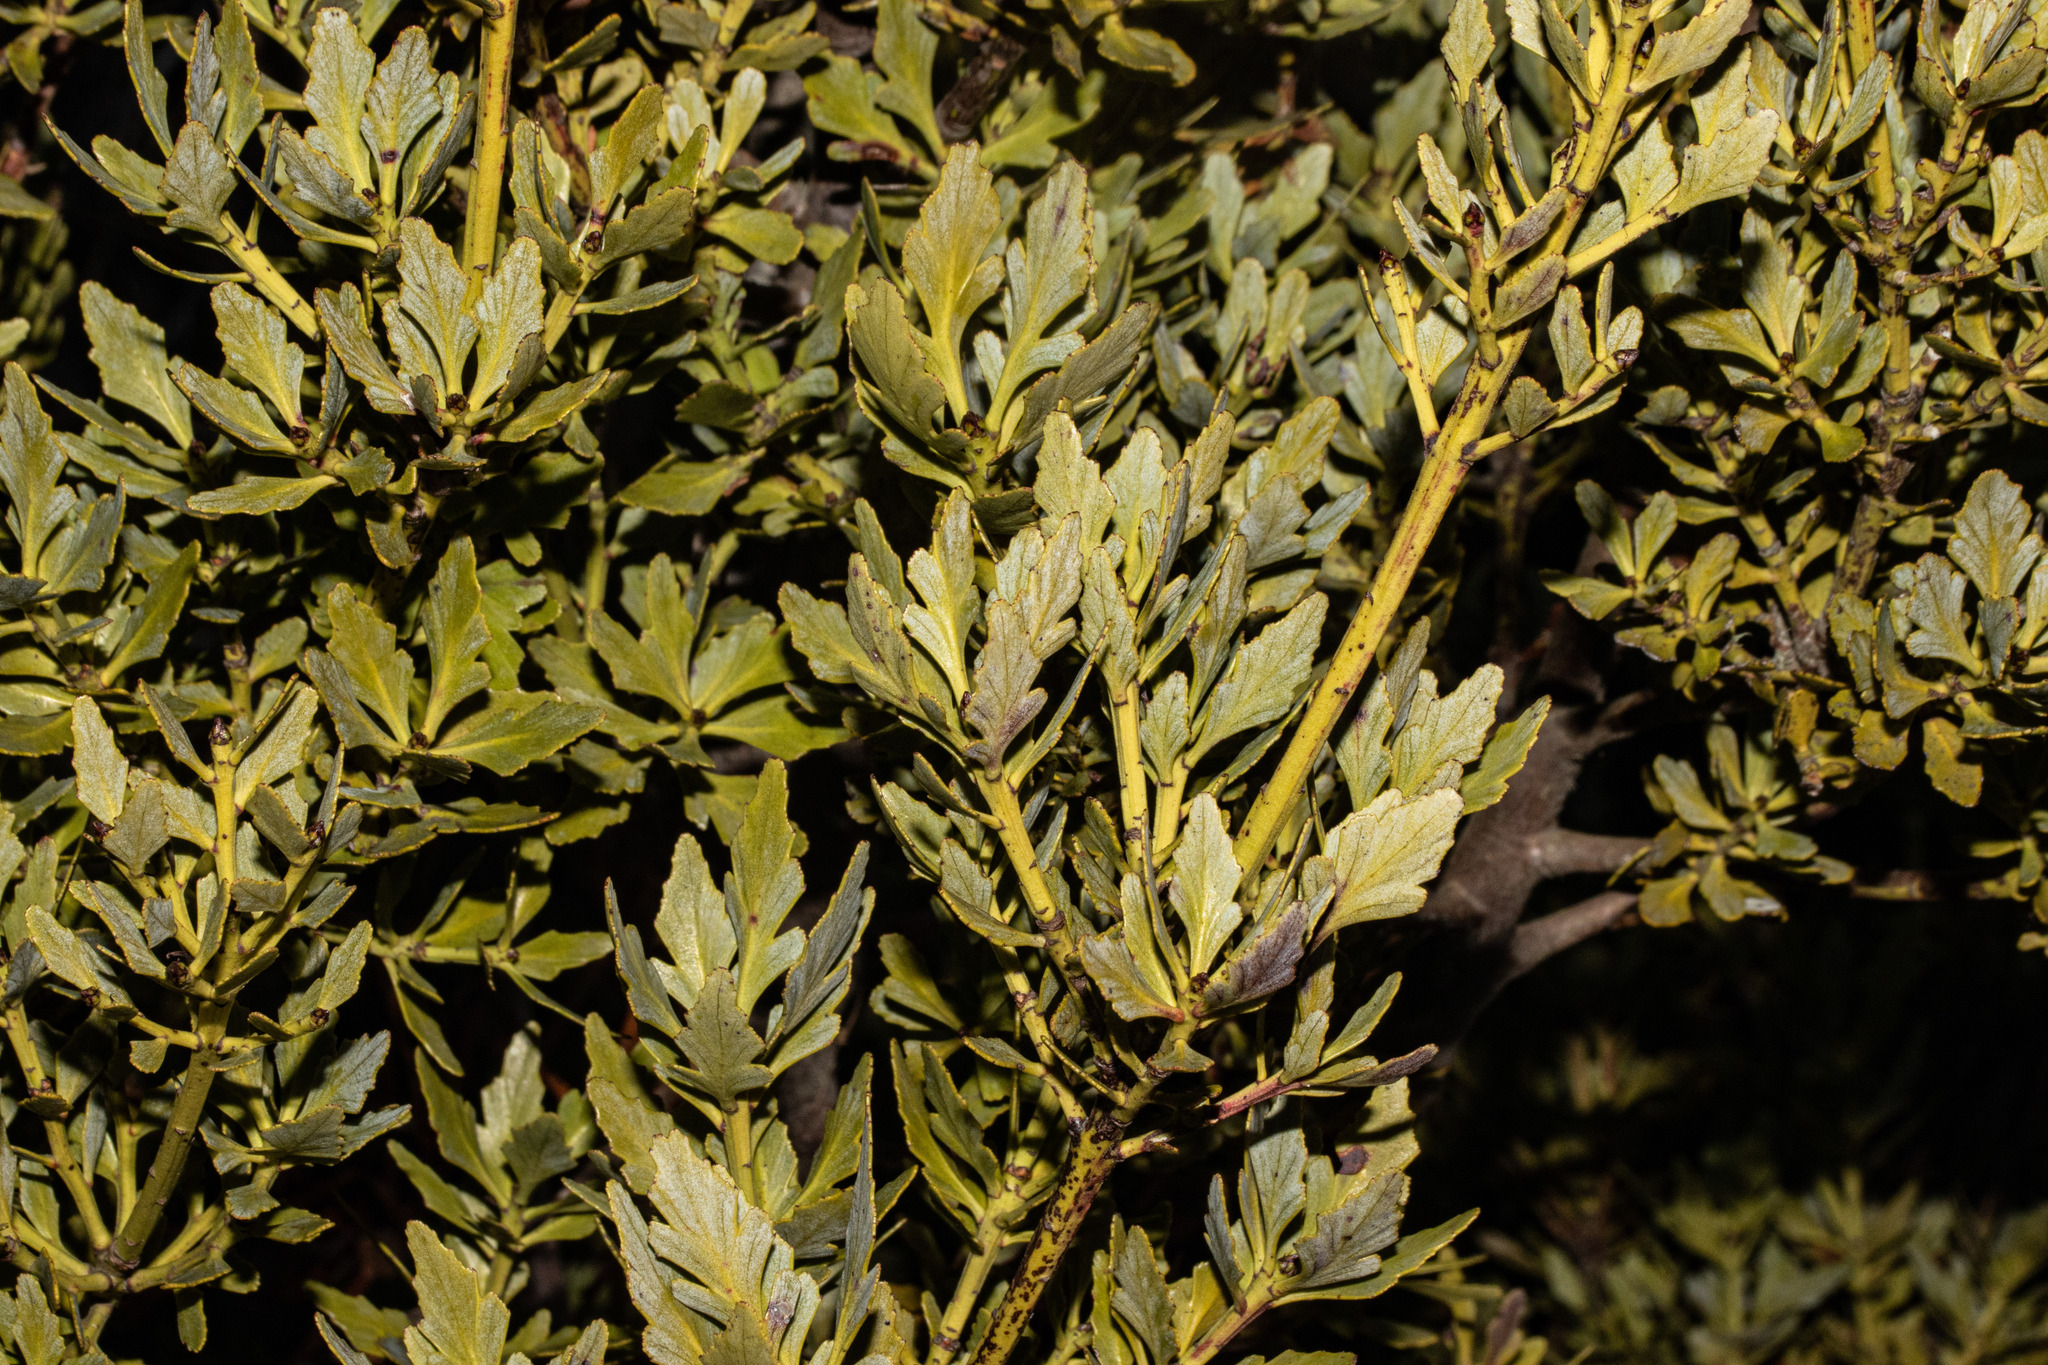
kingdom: Plantae
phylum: Tracheophyta
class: Pinopsida
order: Pinales
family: Phyllocladaceae
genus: Phyllocladus
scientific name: Phyllocladus trichomanoides
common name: Celery pine
